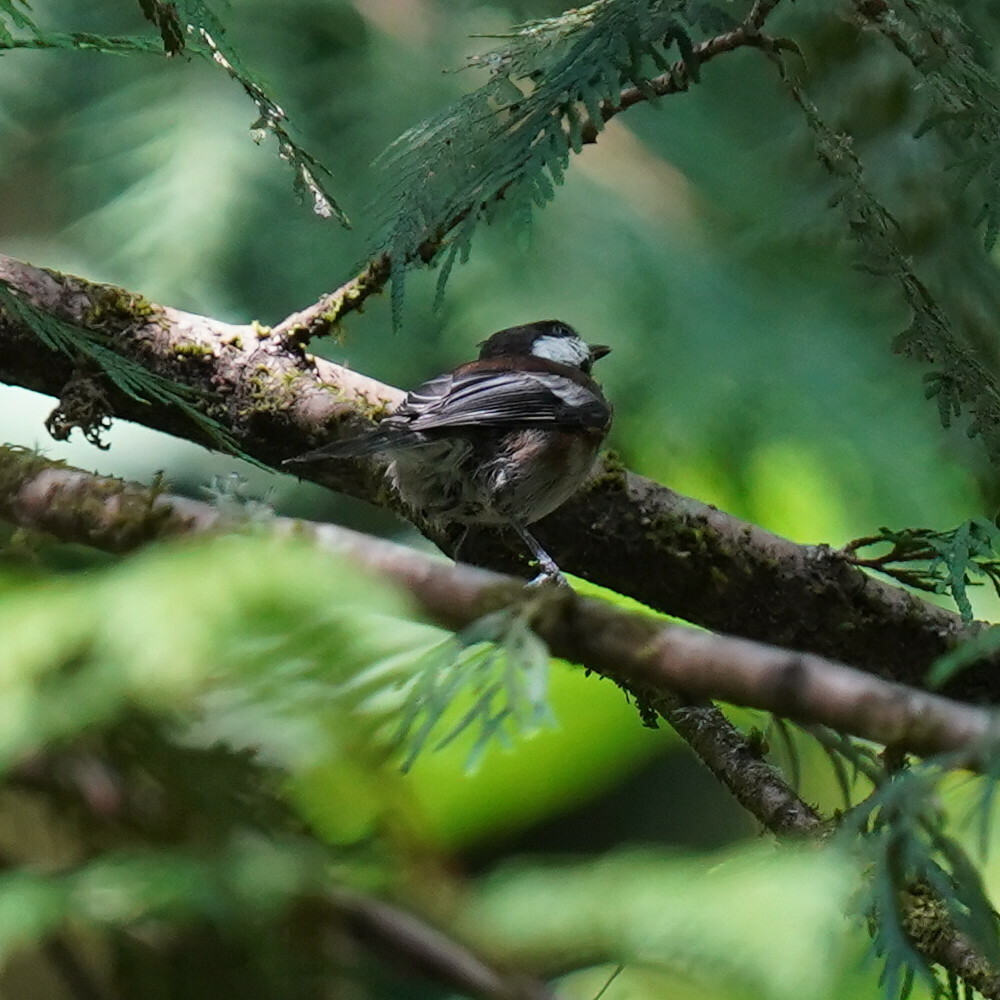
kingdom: Animalia
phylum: Chordata
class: Aves
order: Passeriformes
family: Paridae
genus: Poecile
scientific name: Poecile rufescens
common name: Chestnut-backed chickadee
